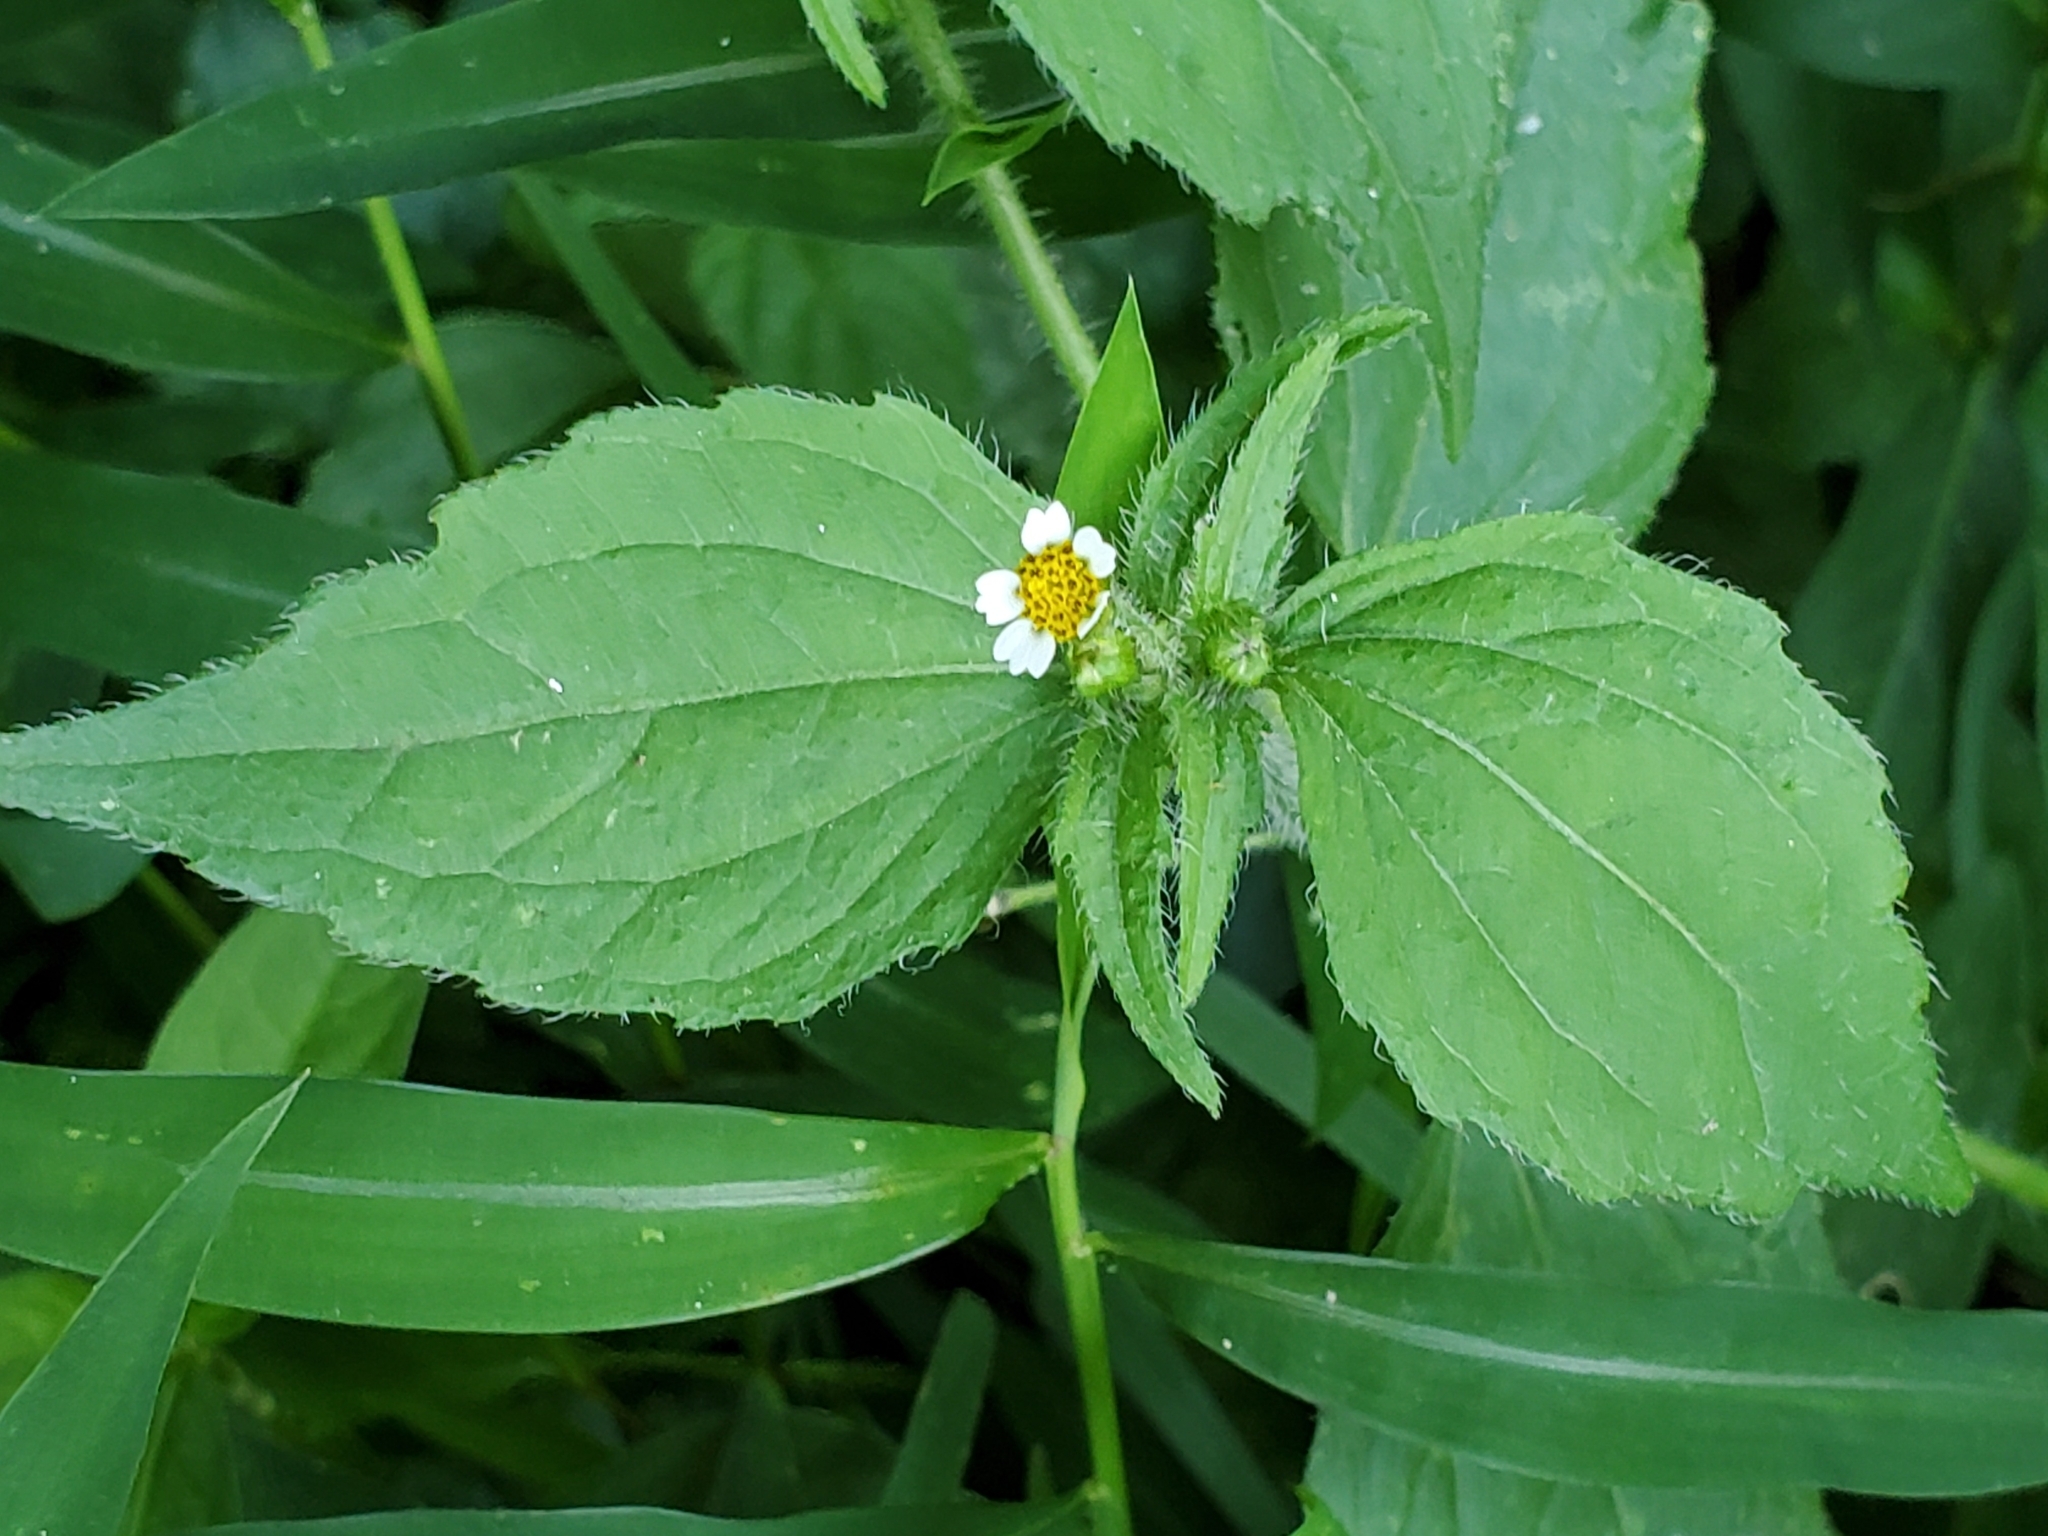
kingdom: Plantae
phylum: Tracheophyta
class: Magnoliopsida
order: Asterales
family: Asteraceae
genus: Galinsoga
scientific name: Galinsoga quadriradiata
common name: Shaggy soldier
